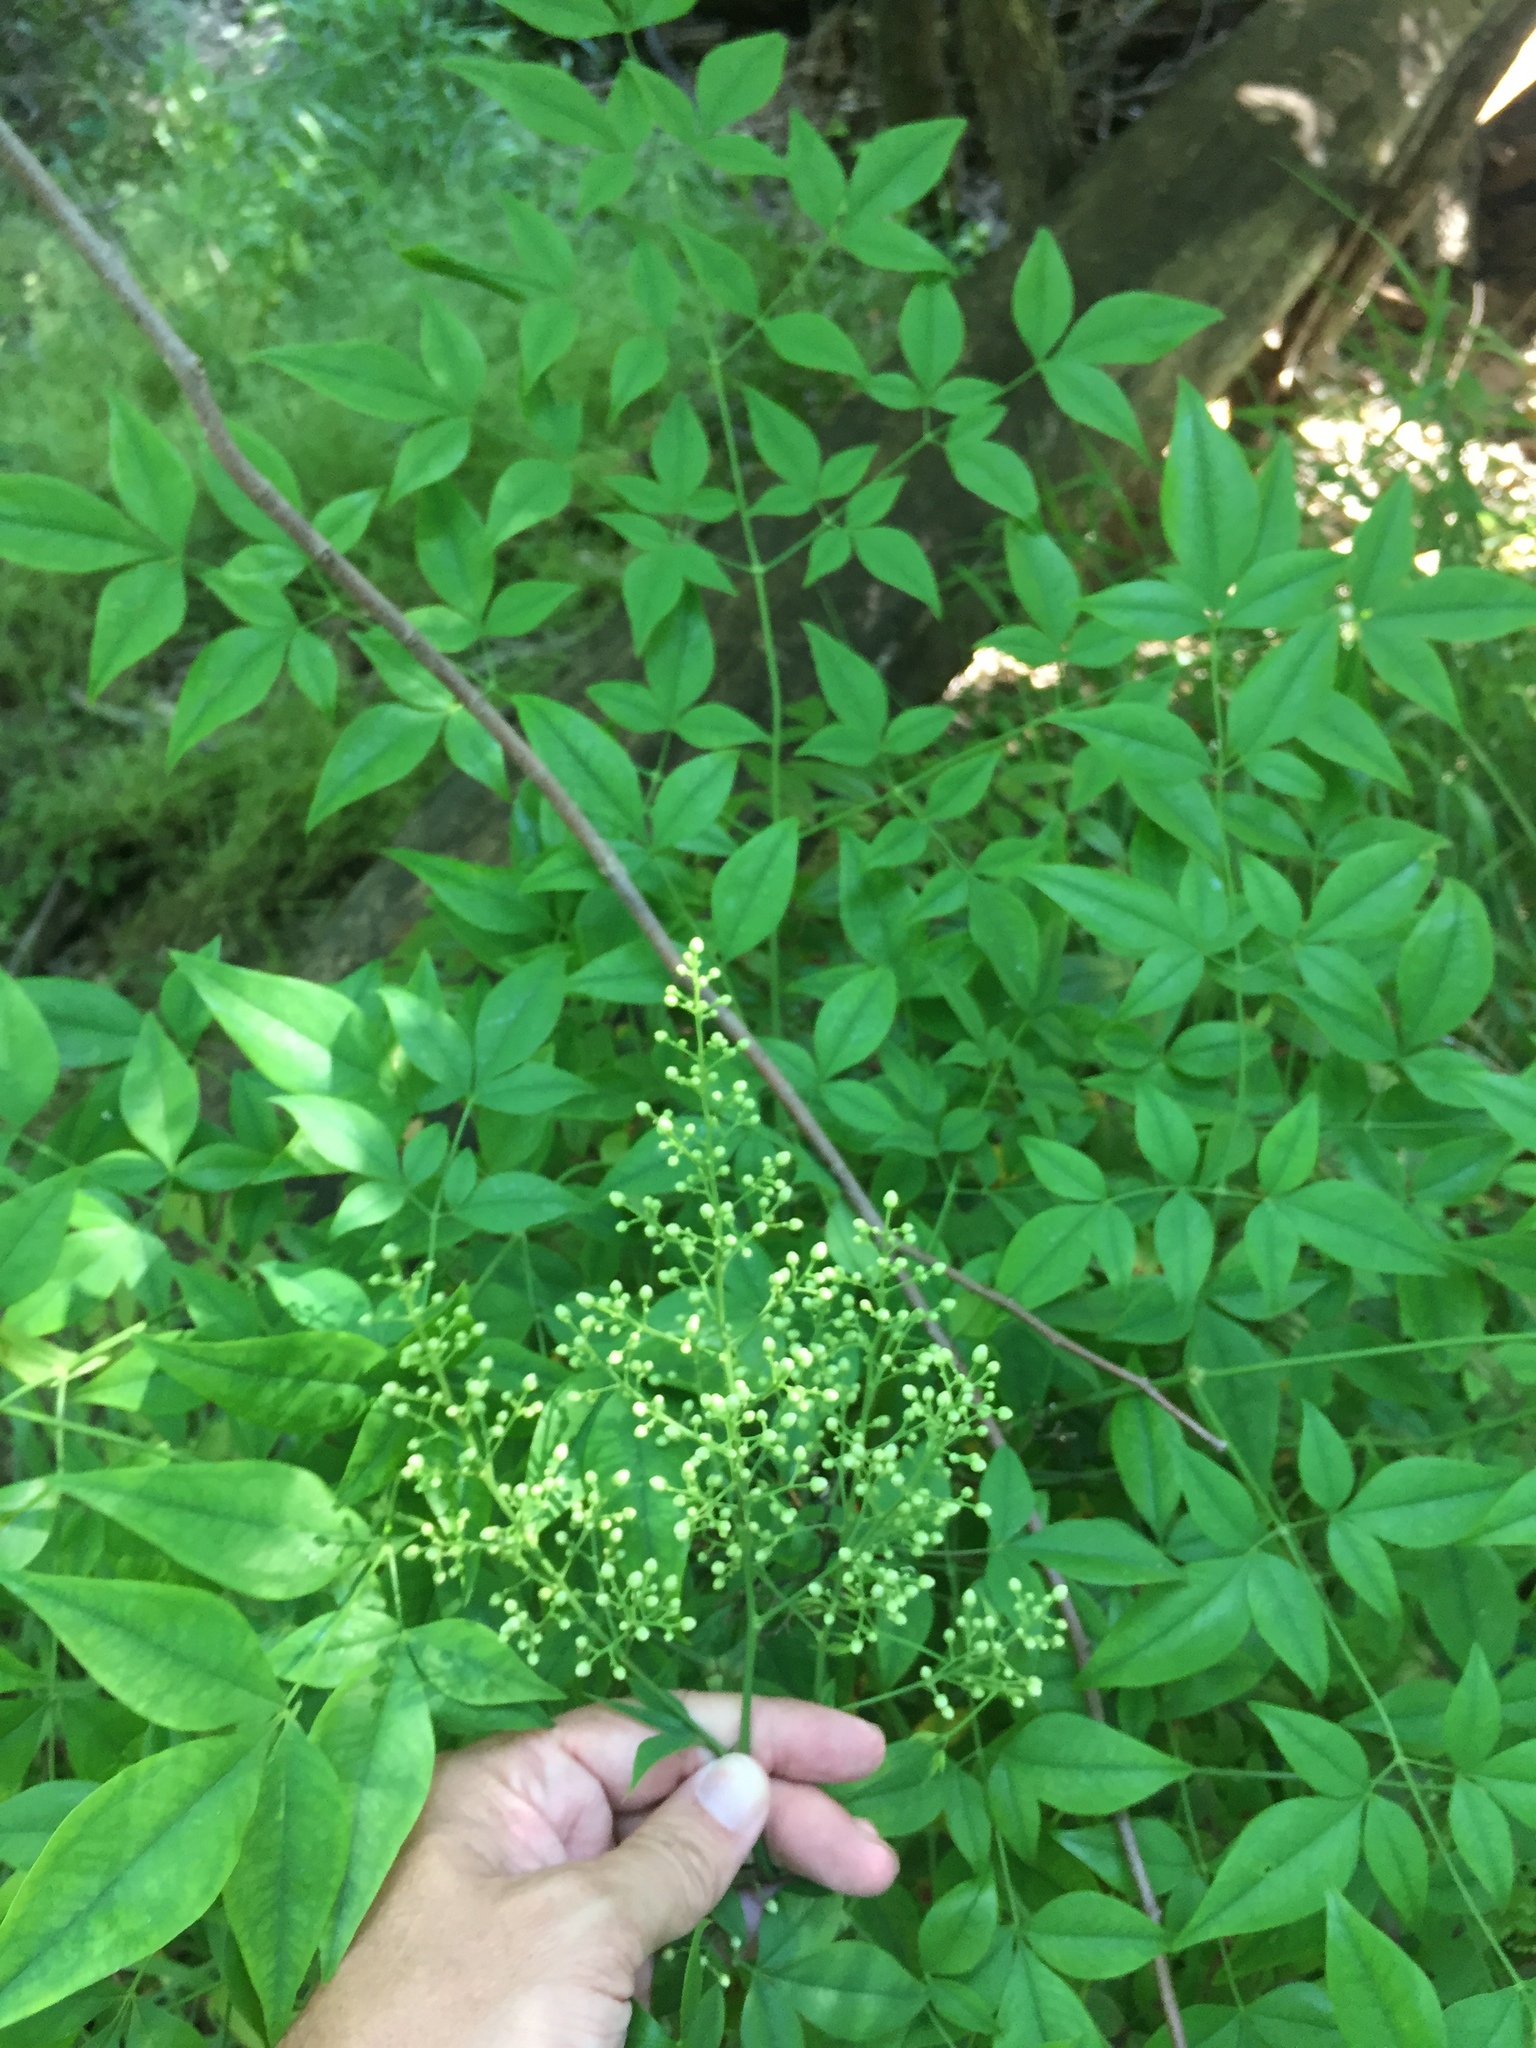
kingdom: Plantae
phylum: Tracheophyta
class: Magnoliopsida
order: Ranunculales
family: Berberidaceae
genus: Nandina
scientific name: Nandina domestica
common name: Sacred bamboo
